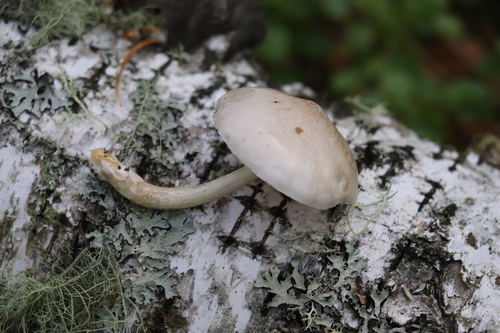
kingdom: Fungi
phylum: Basidiomycota
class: Agaricomycetes
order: Agaricales
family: Pluteaceae
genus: Pluteus
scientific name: Pluteus leucoborealis
